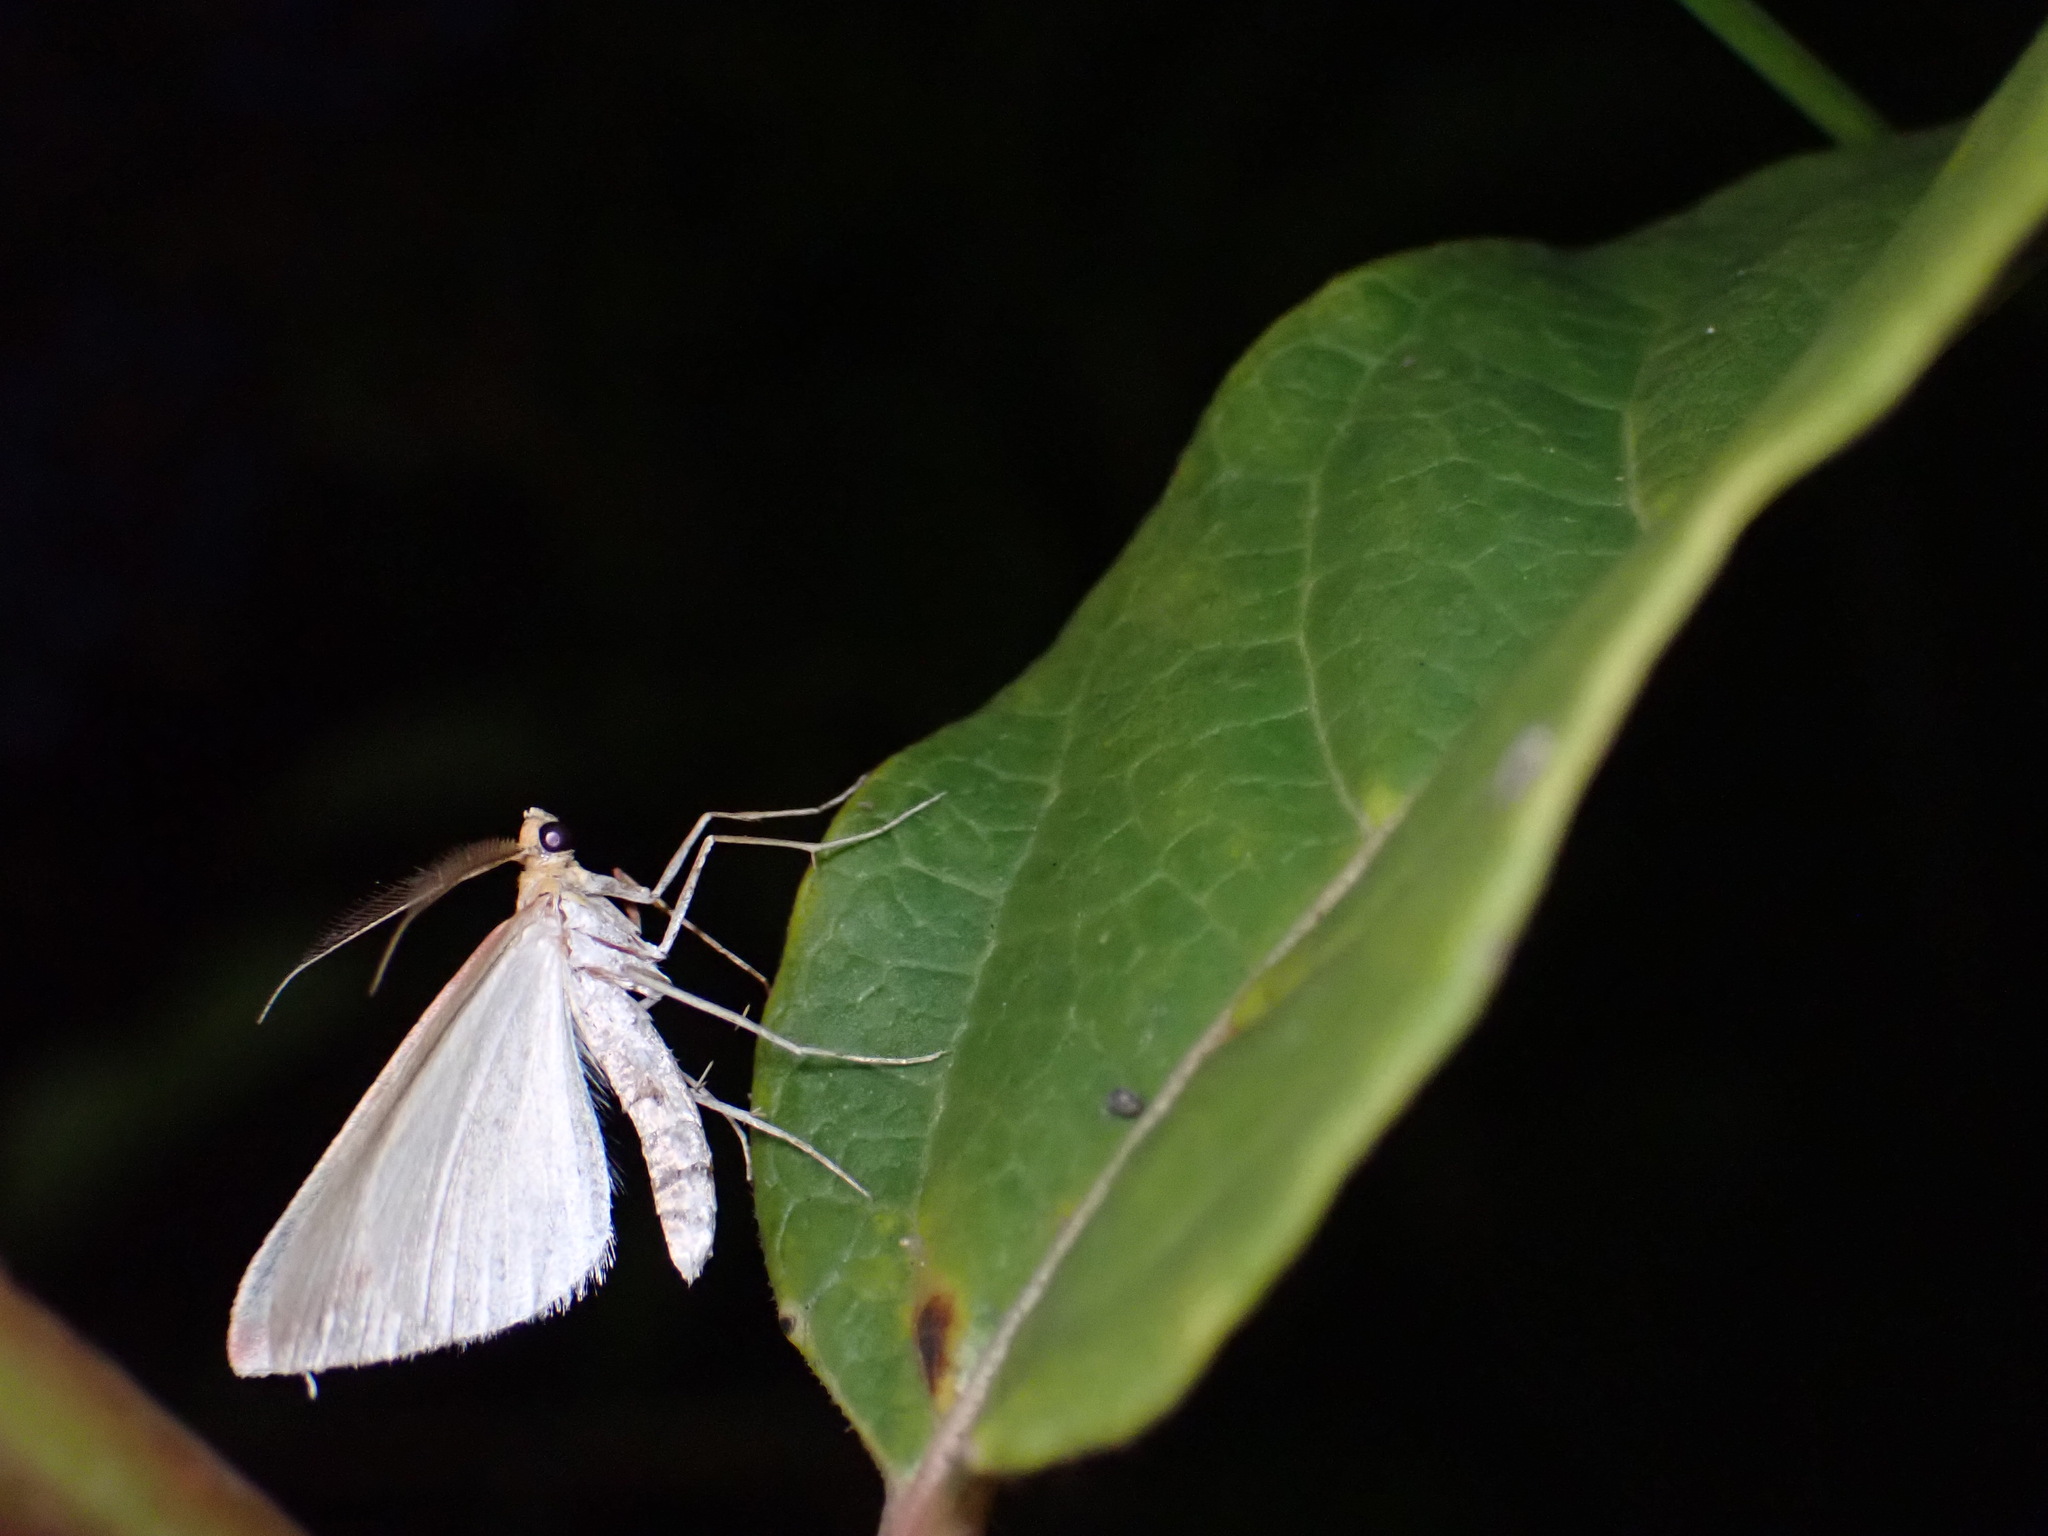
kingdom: Animalia
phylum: Arthropoda
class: Insecta
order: Lepidoptera
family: Geometridae
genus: Rhodometra
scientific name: Rhodometra sacraria
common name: Vestal
